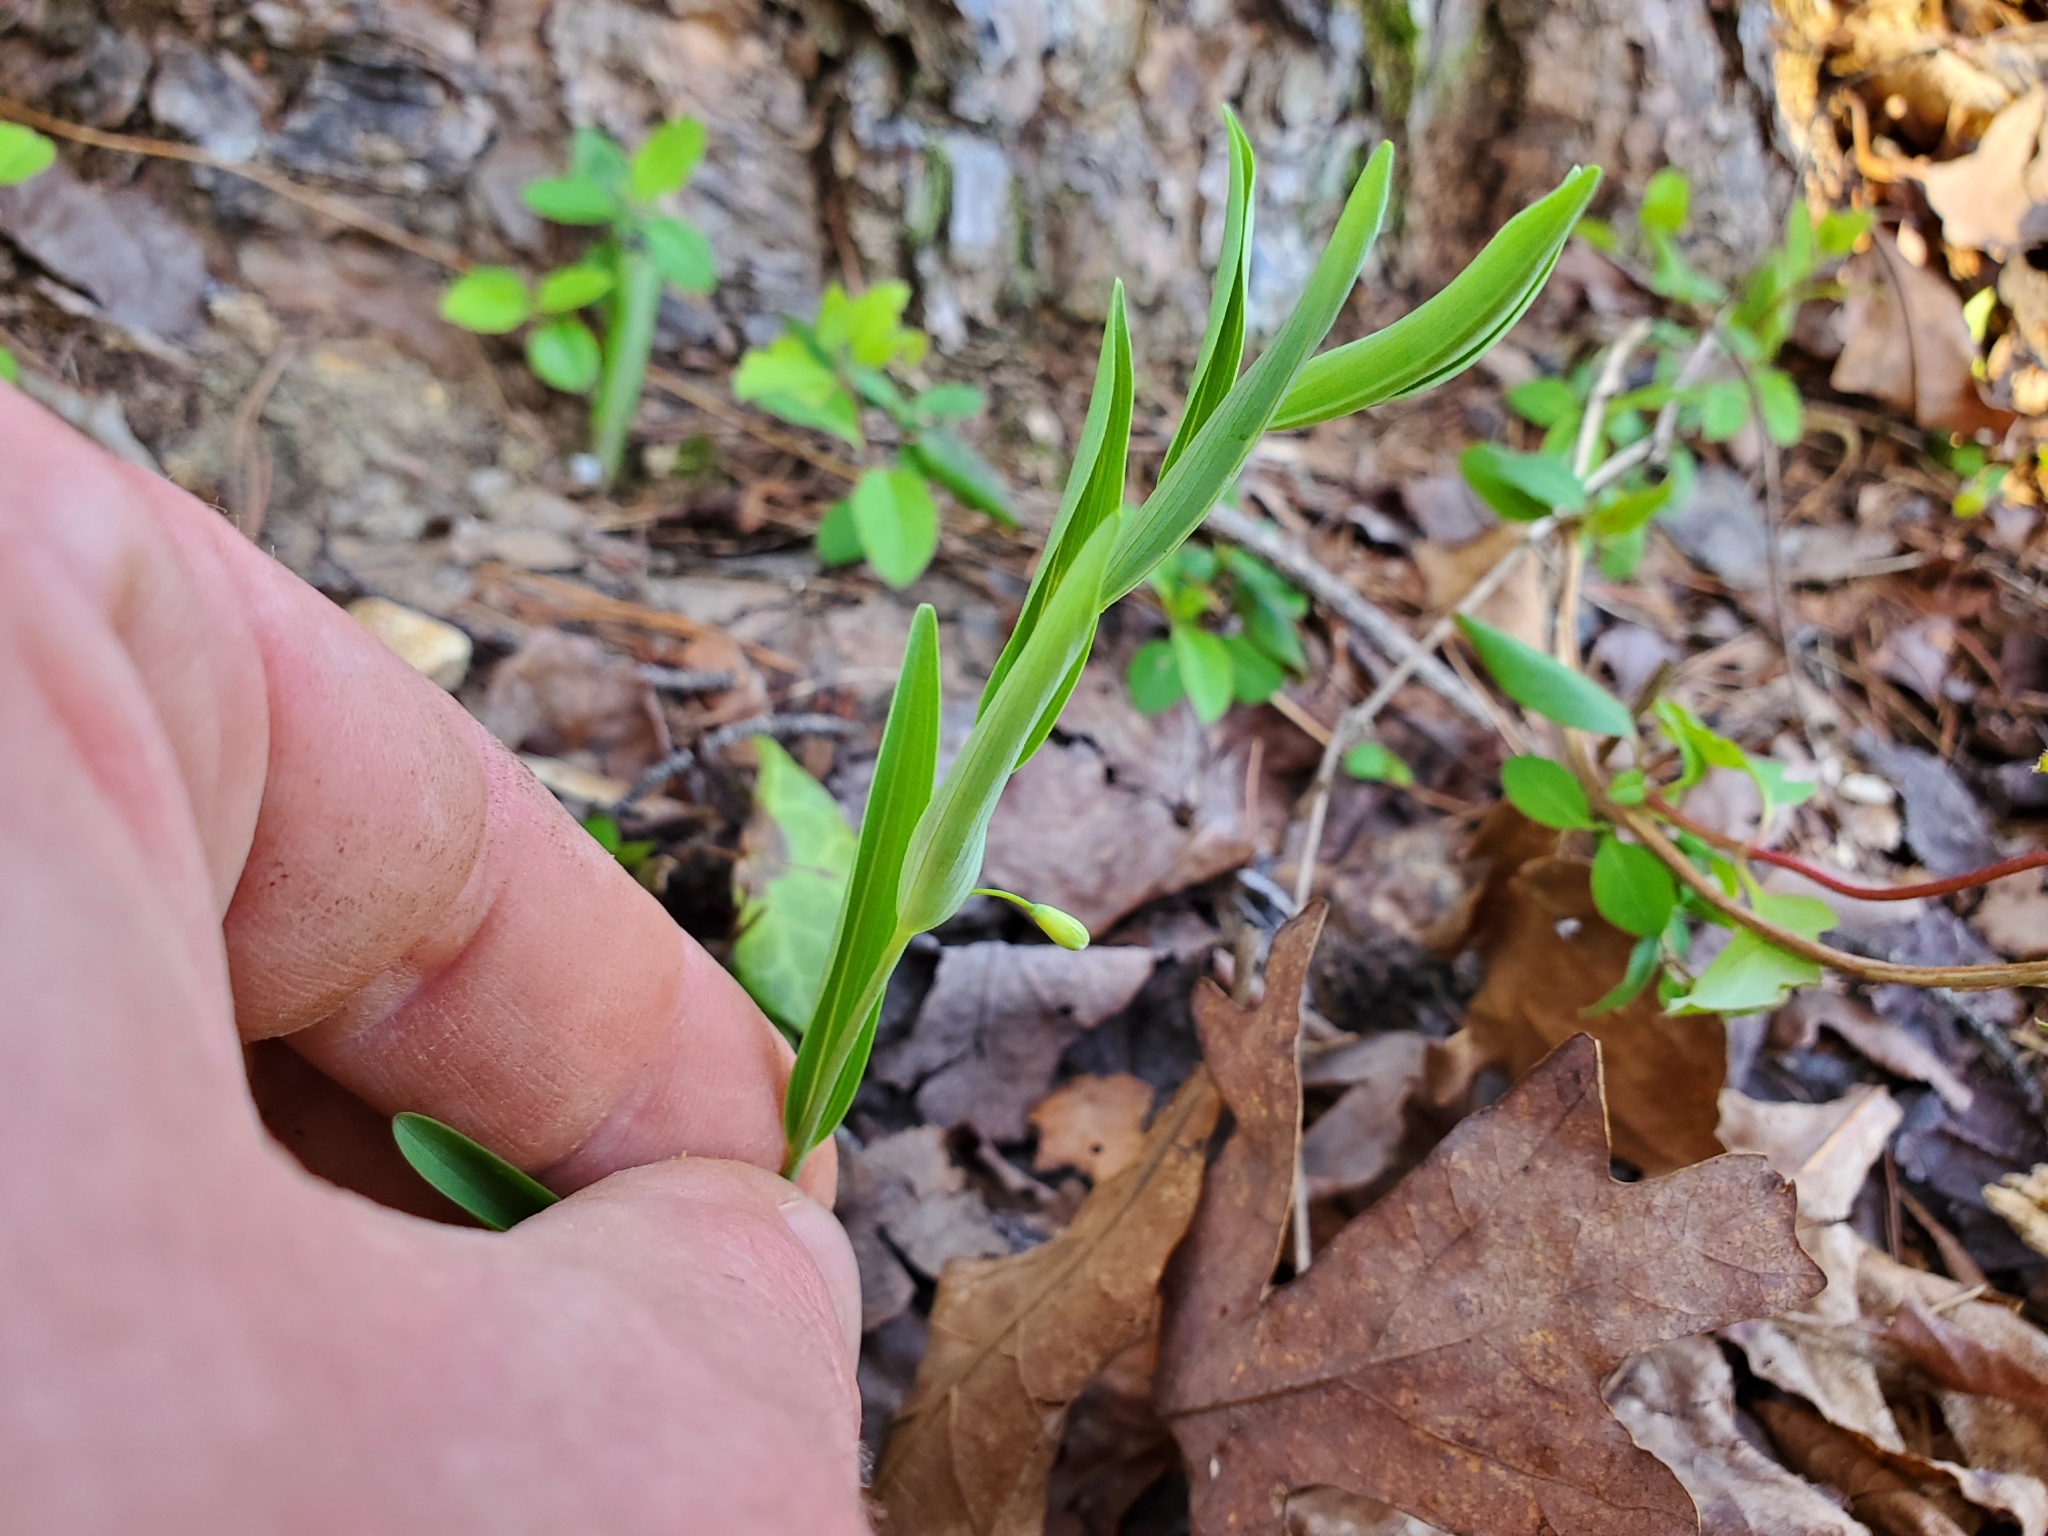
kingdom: Plantae
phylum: Tracheophyta
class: Liliopsida
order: Asparagales
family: Asparagaceae
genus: Polygonatum
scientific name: Polygonatum biflorum
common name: American solomon's-seal
